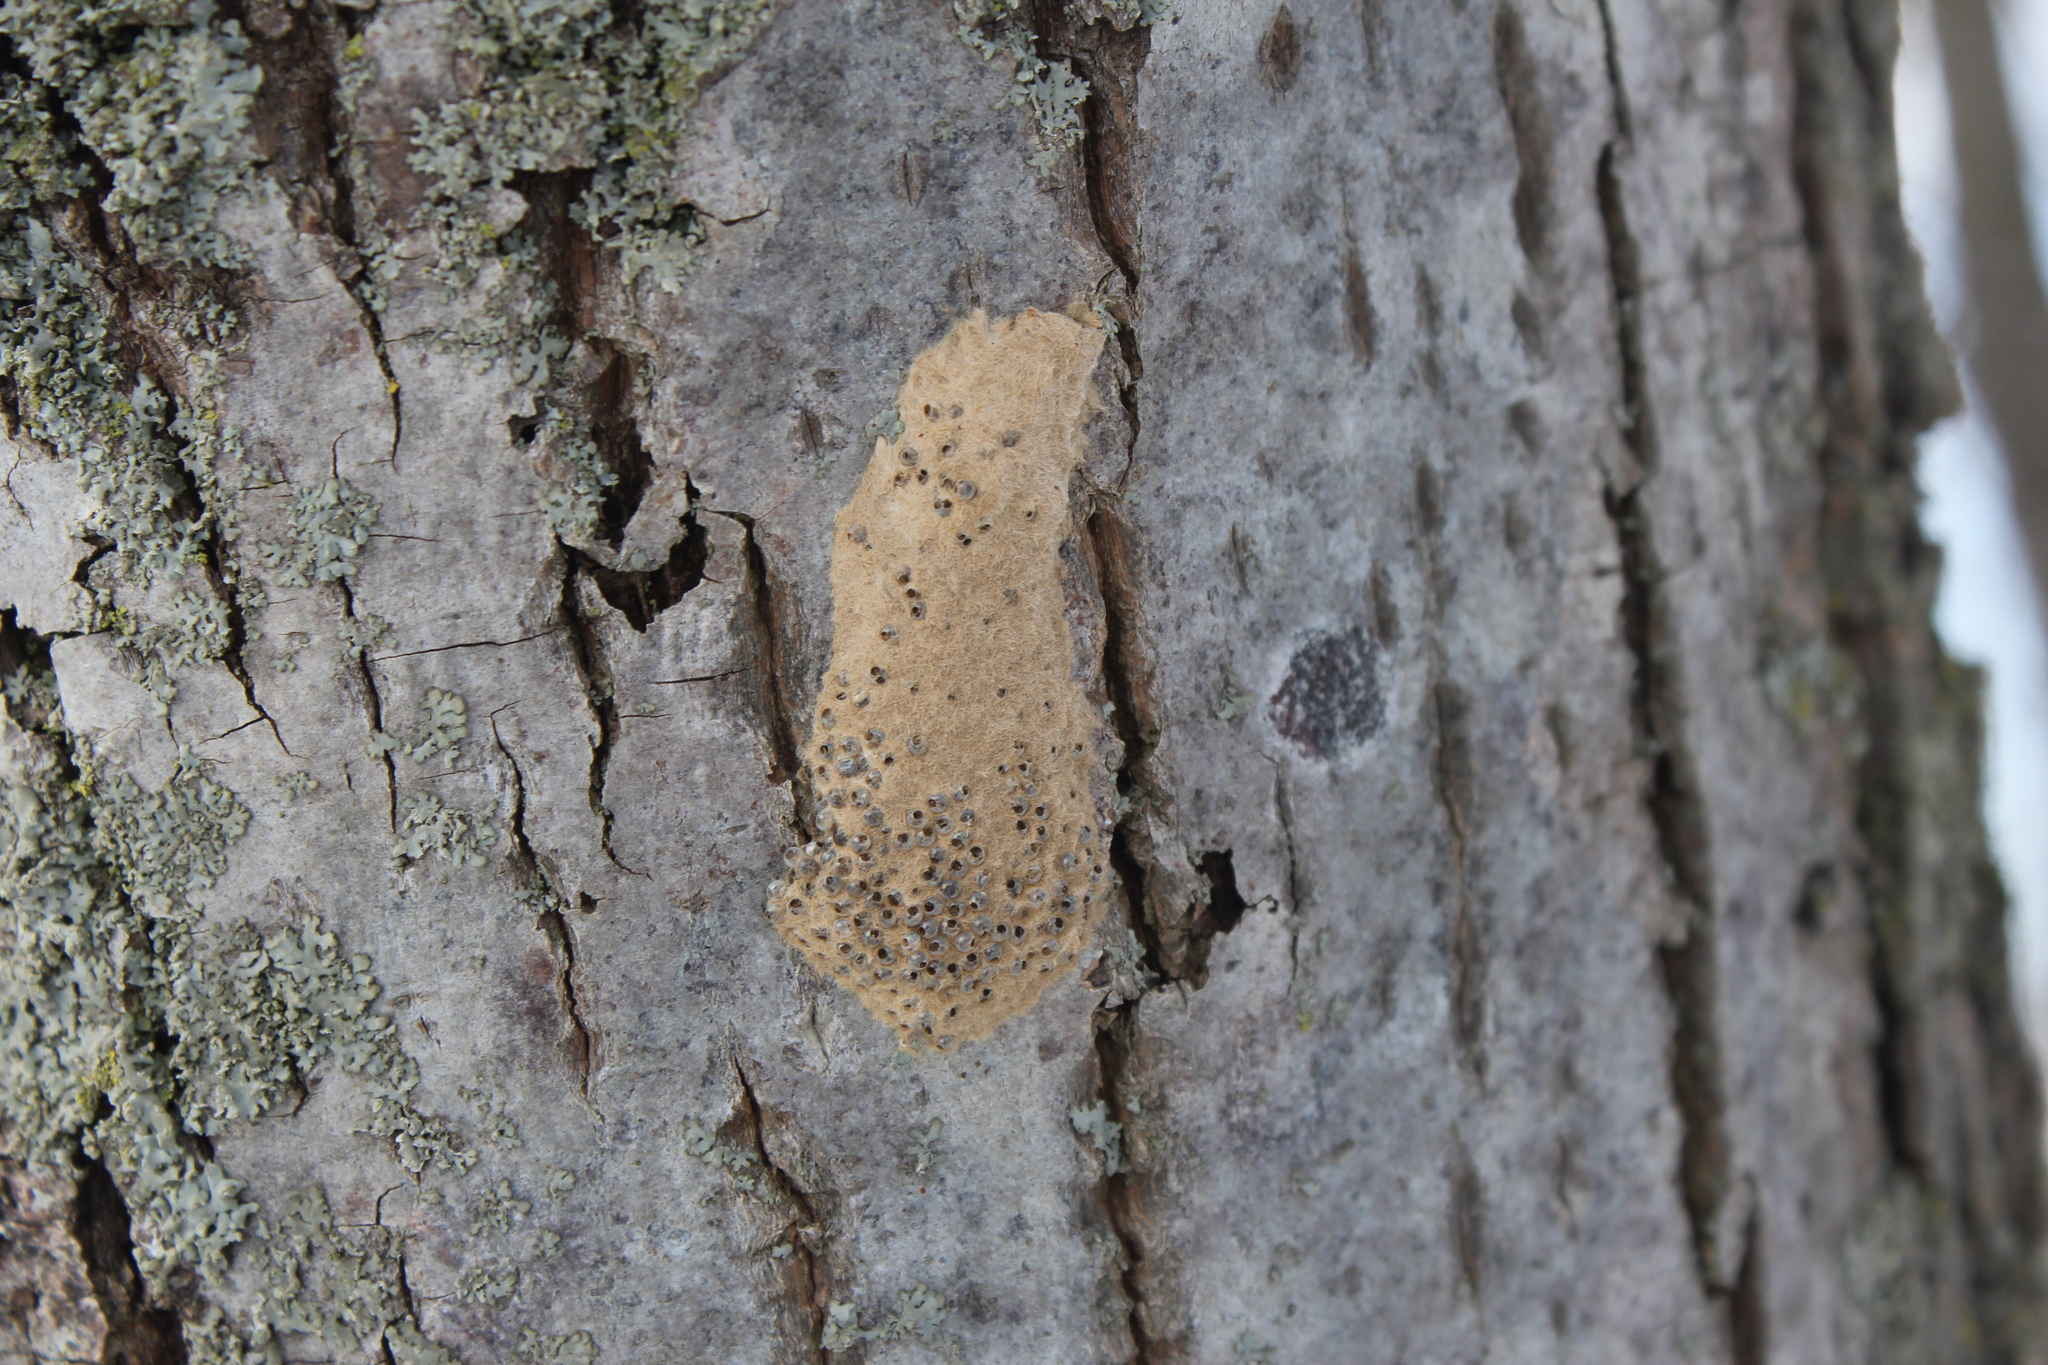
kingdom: Animalia
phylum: Arthropoda
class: Insecta
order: Lepidoptera
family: Erebidae
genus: Lymantria
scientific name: Lymantria dispar
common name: Gypsy moth
